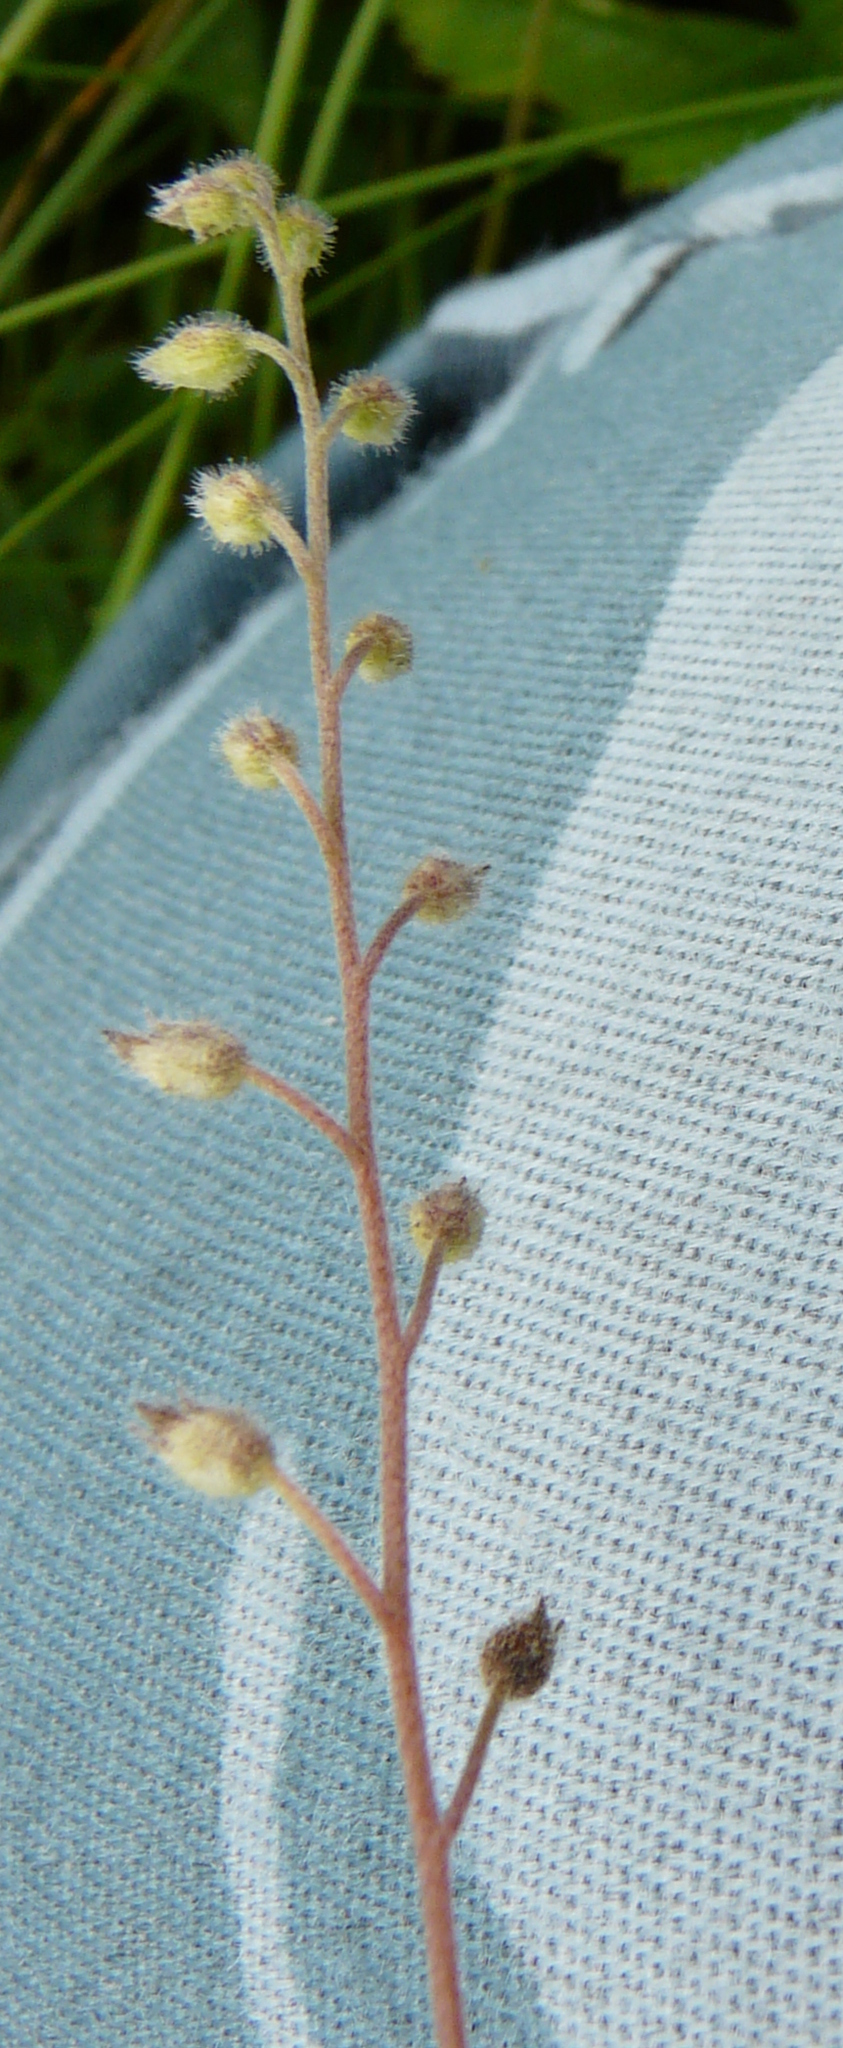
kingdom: Plantae
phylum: Tracheophyta
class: Magnoliopsida
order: Boraginales
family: Boraginaceae
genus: Myosotis
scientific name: Myosotis arvensis
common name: Field forget-me-not
